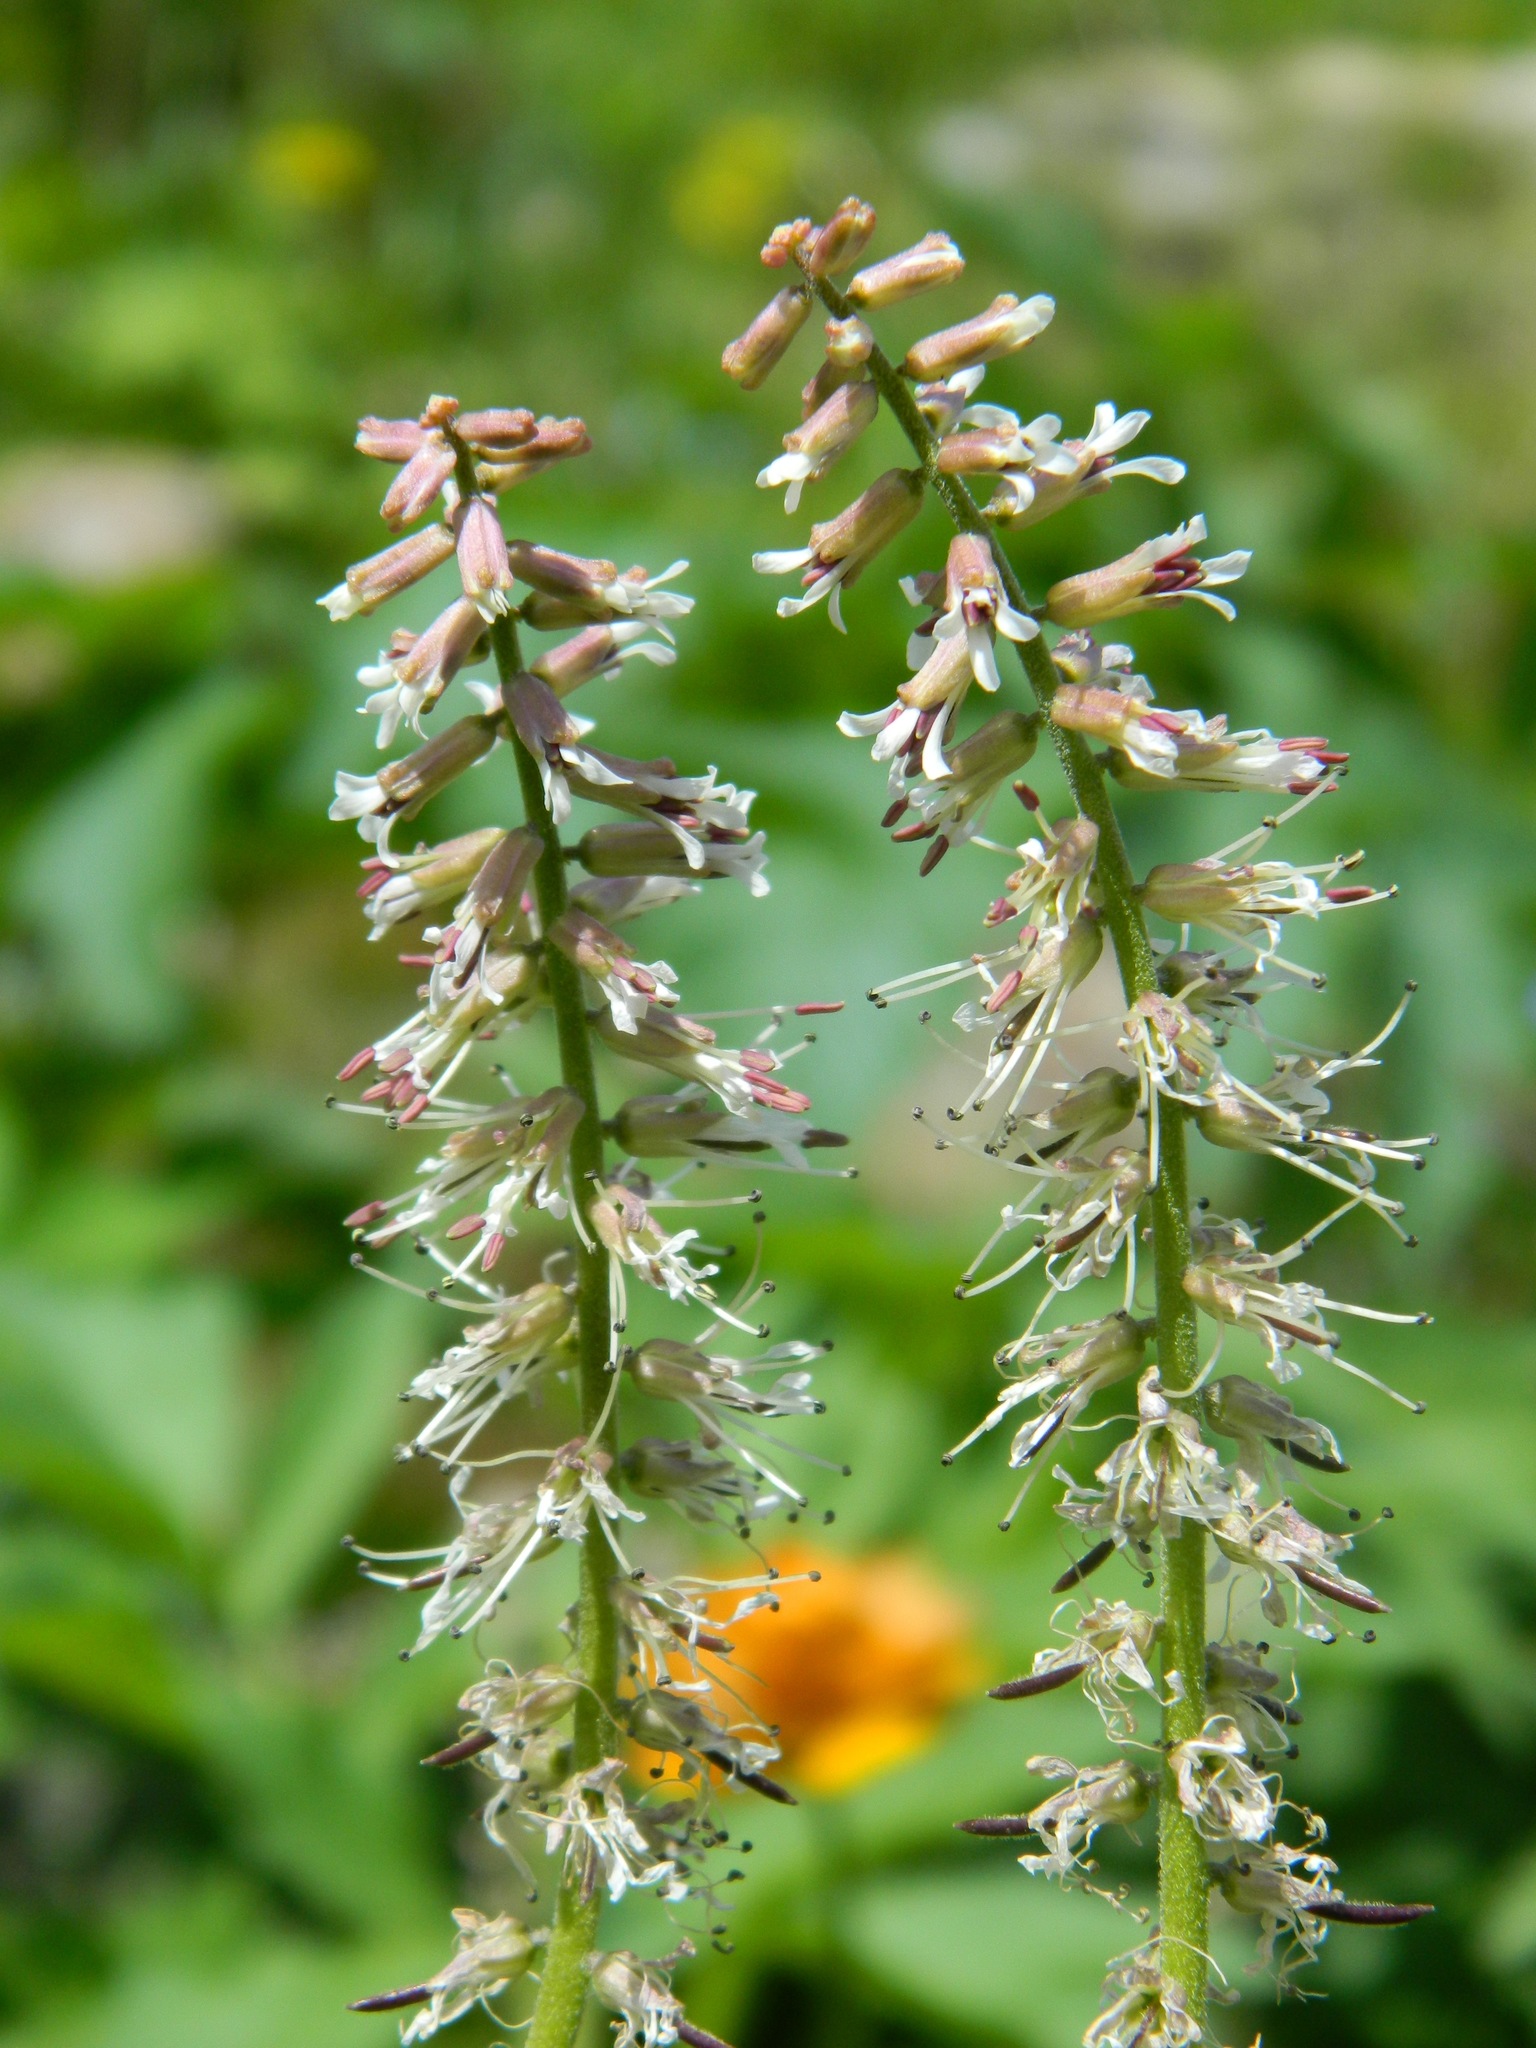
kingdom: Plantae
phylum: Tracheophyta
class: Magnoliopsida
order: Brassicales
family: Brassicaceae
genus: Macropodium
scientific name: Macropodium nivale
